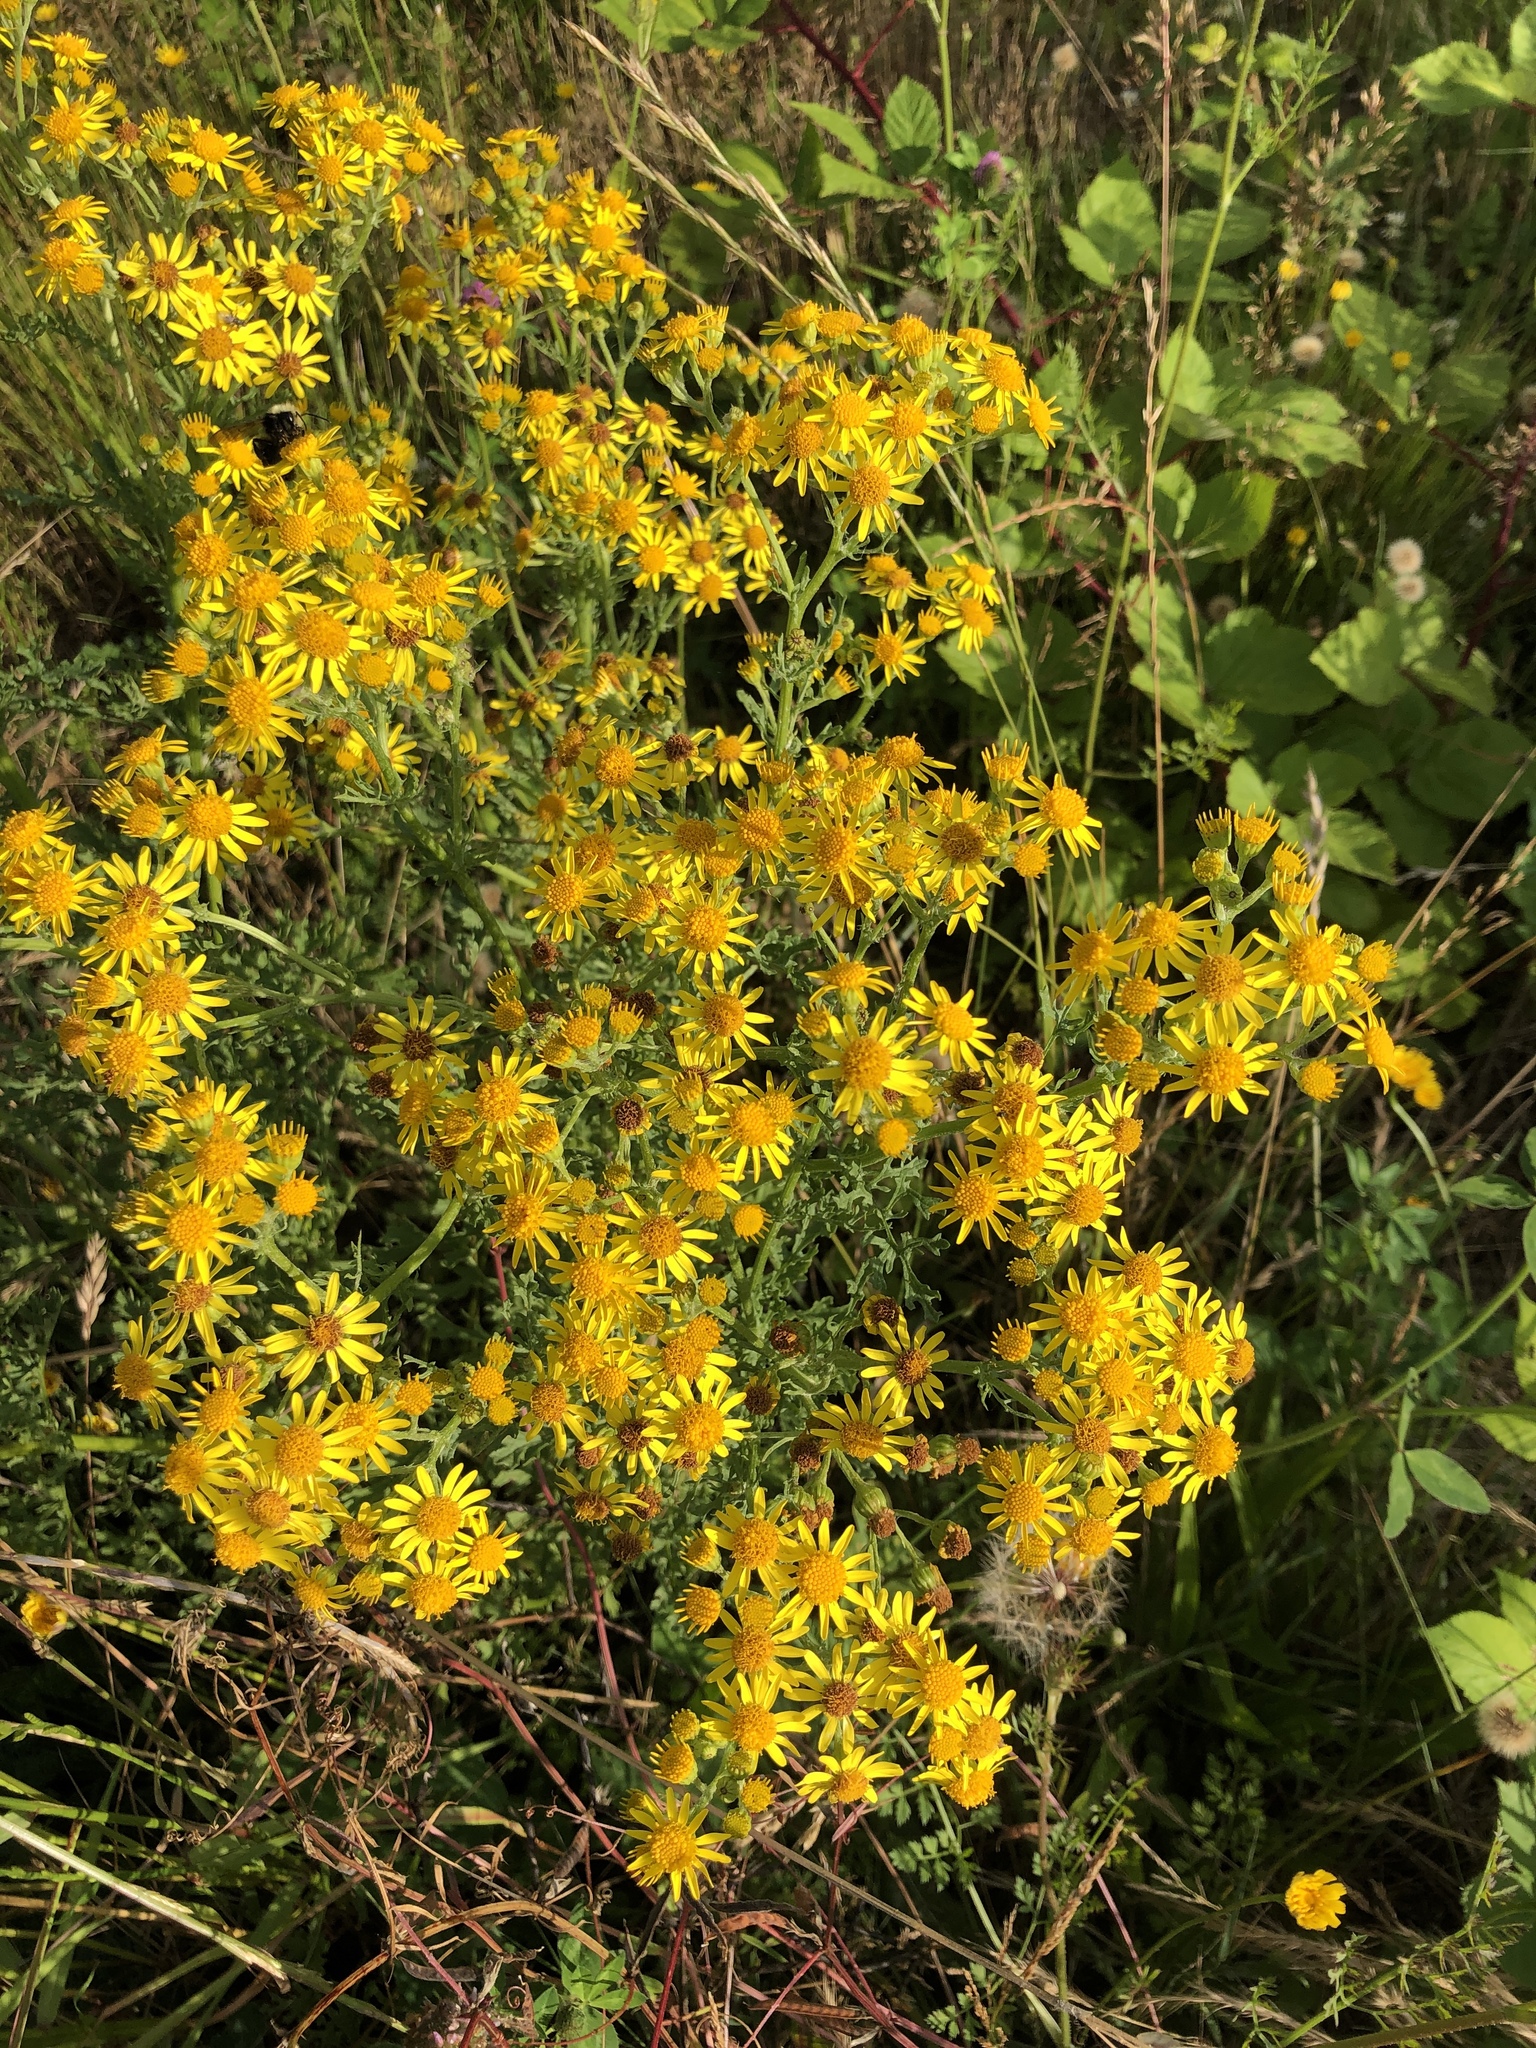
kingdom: Plantae
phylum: Tracheophyta
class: Magnoliopsida
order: Asterales
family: Asteraceae
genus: Jacobaea
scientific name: Jacobaea vulgaris
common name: Stinking willie
